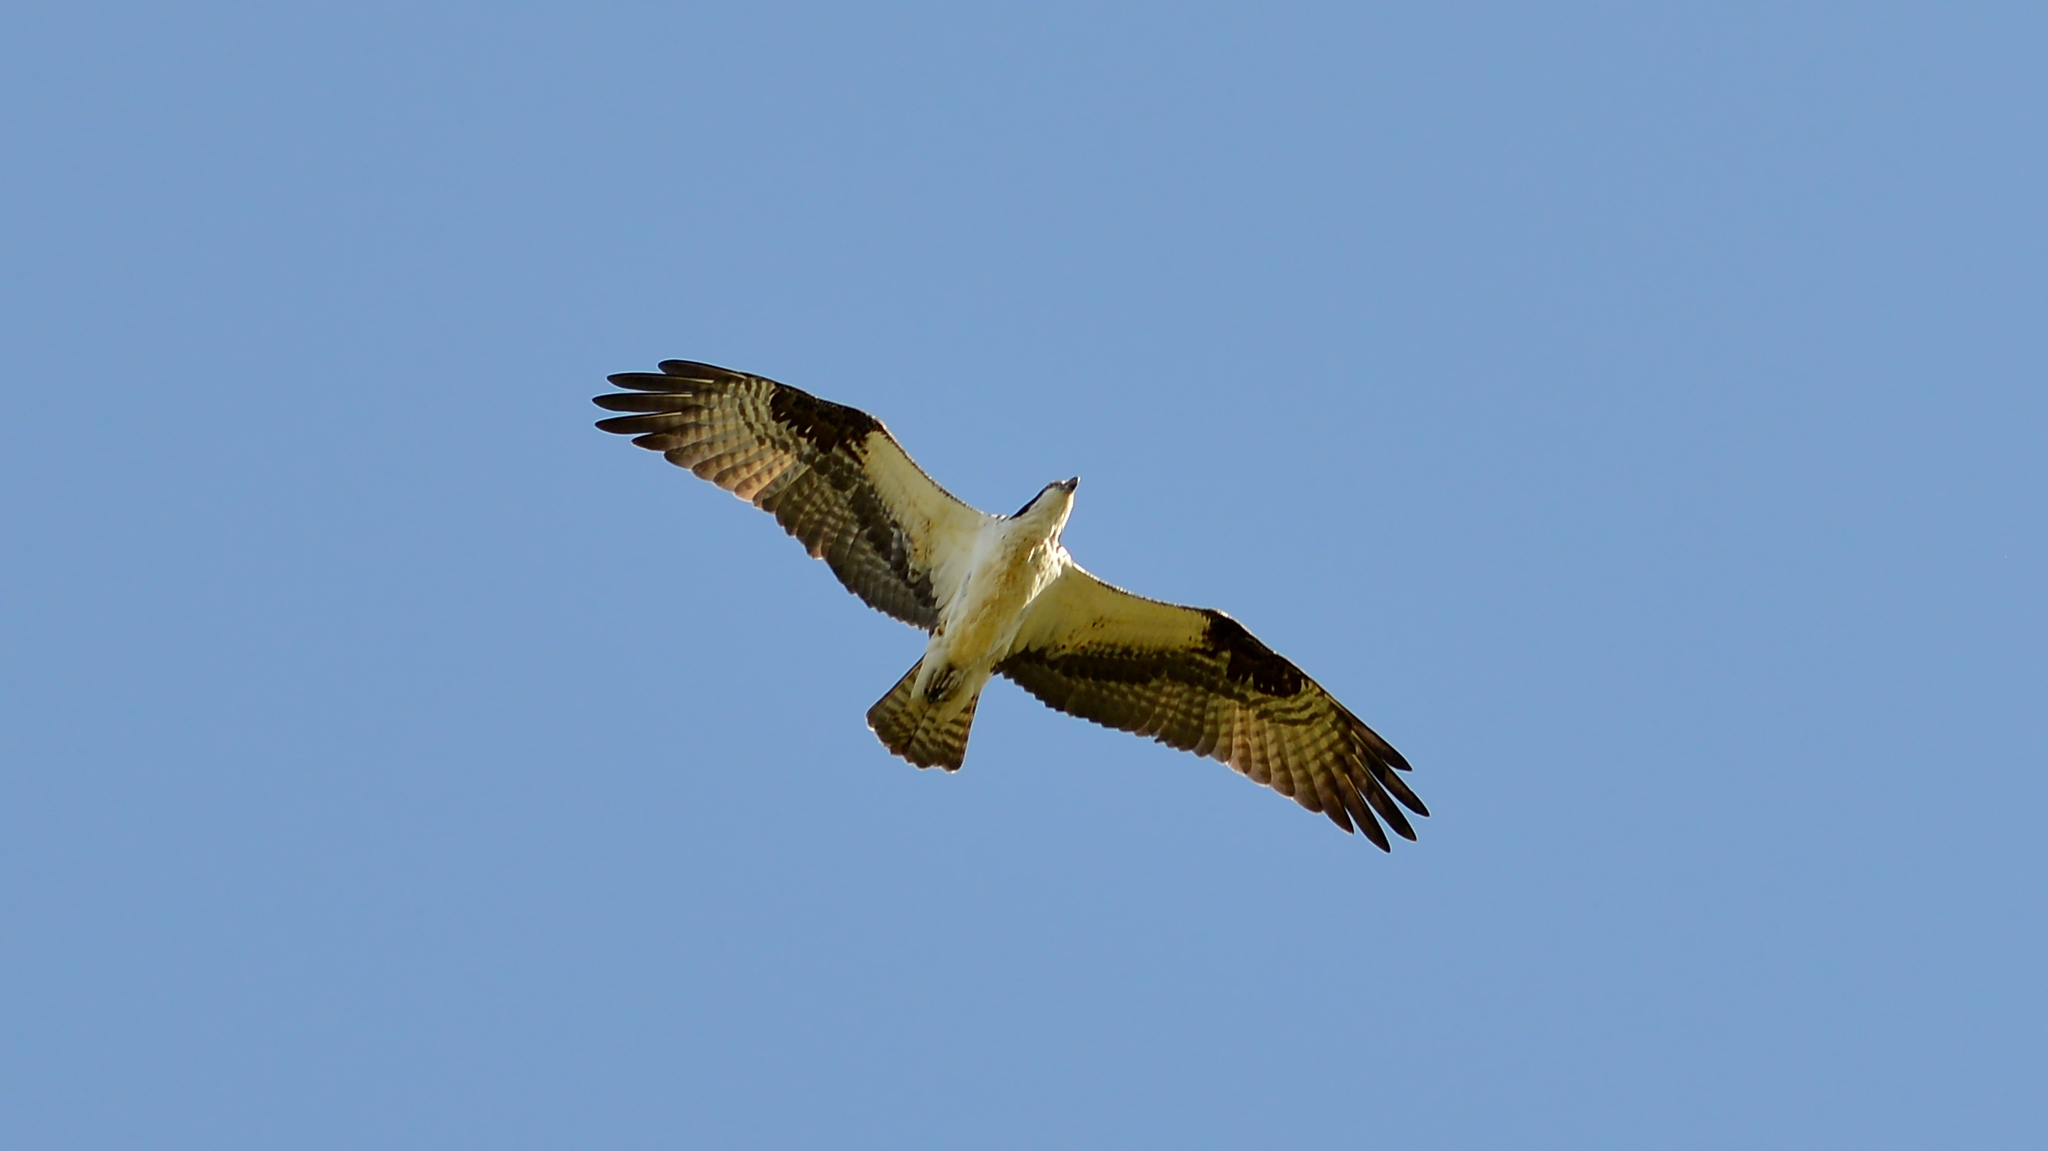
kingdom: Animalia
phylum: Chordata
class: Aves
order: Accipitriformes
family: Pandionidae
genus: Pandion
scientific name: Pandion haliaetus
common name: Osprey
